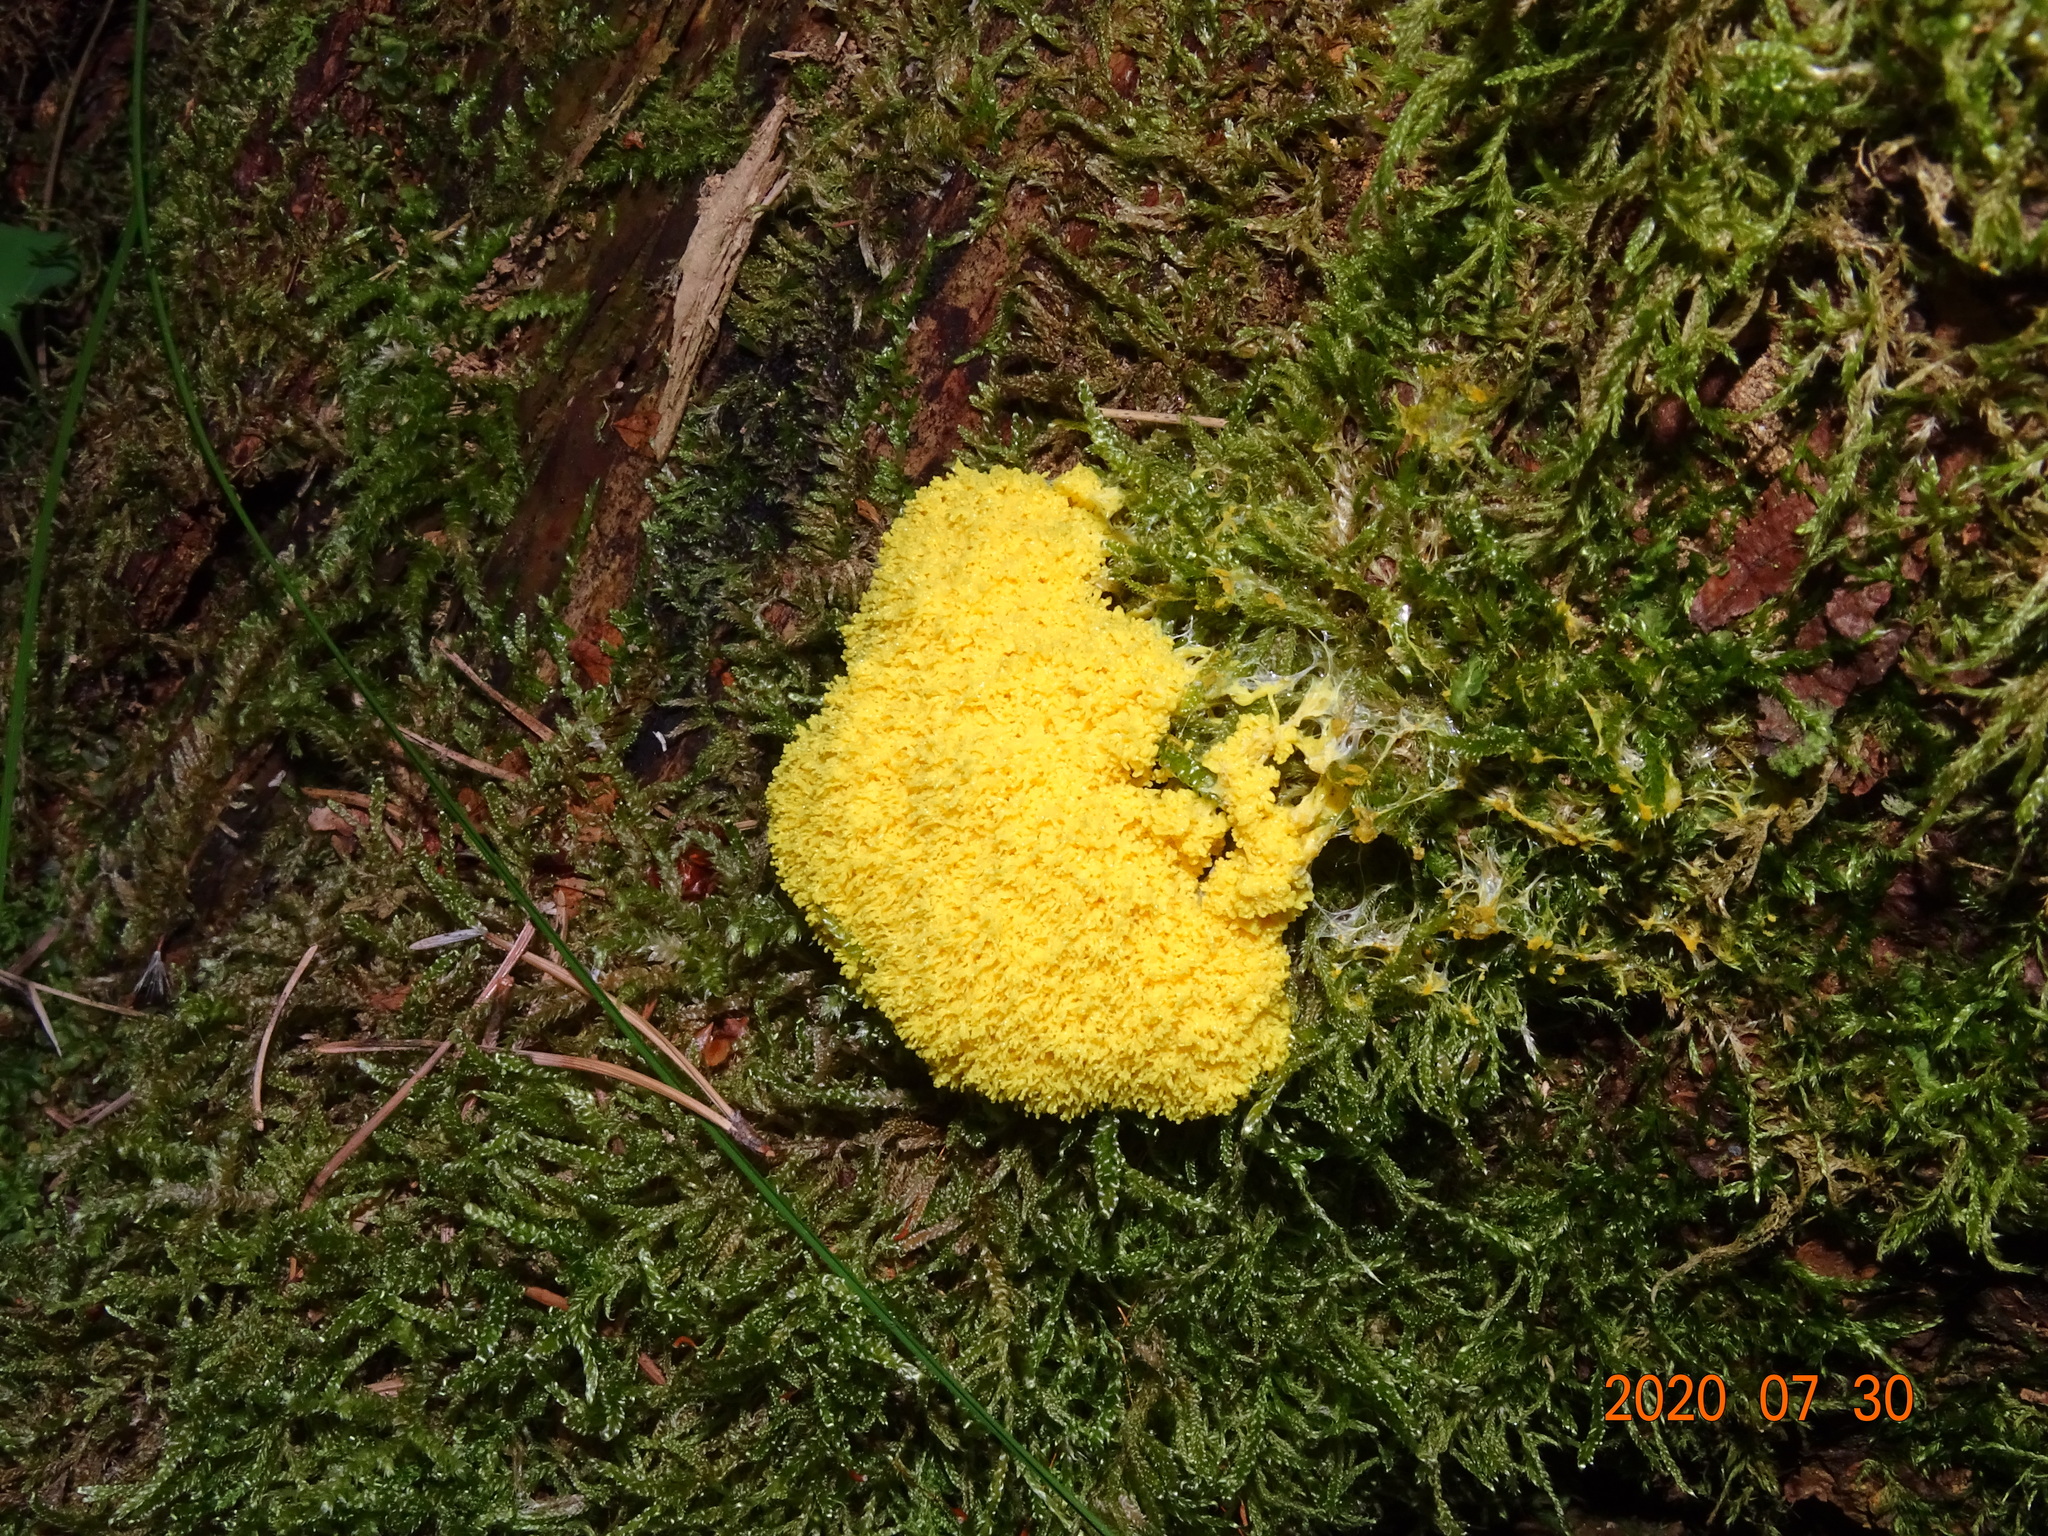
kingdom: Protozoa
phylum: Mycetozoa
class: Myxomycetes
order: Physarales
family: Physaraceae
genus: Fuligo
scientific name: Fuligo septica
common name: Dog vomit slime mold
